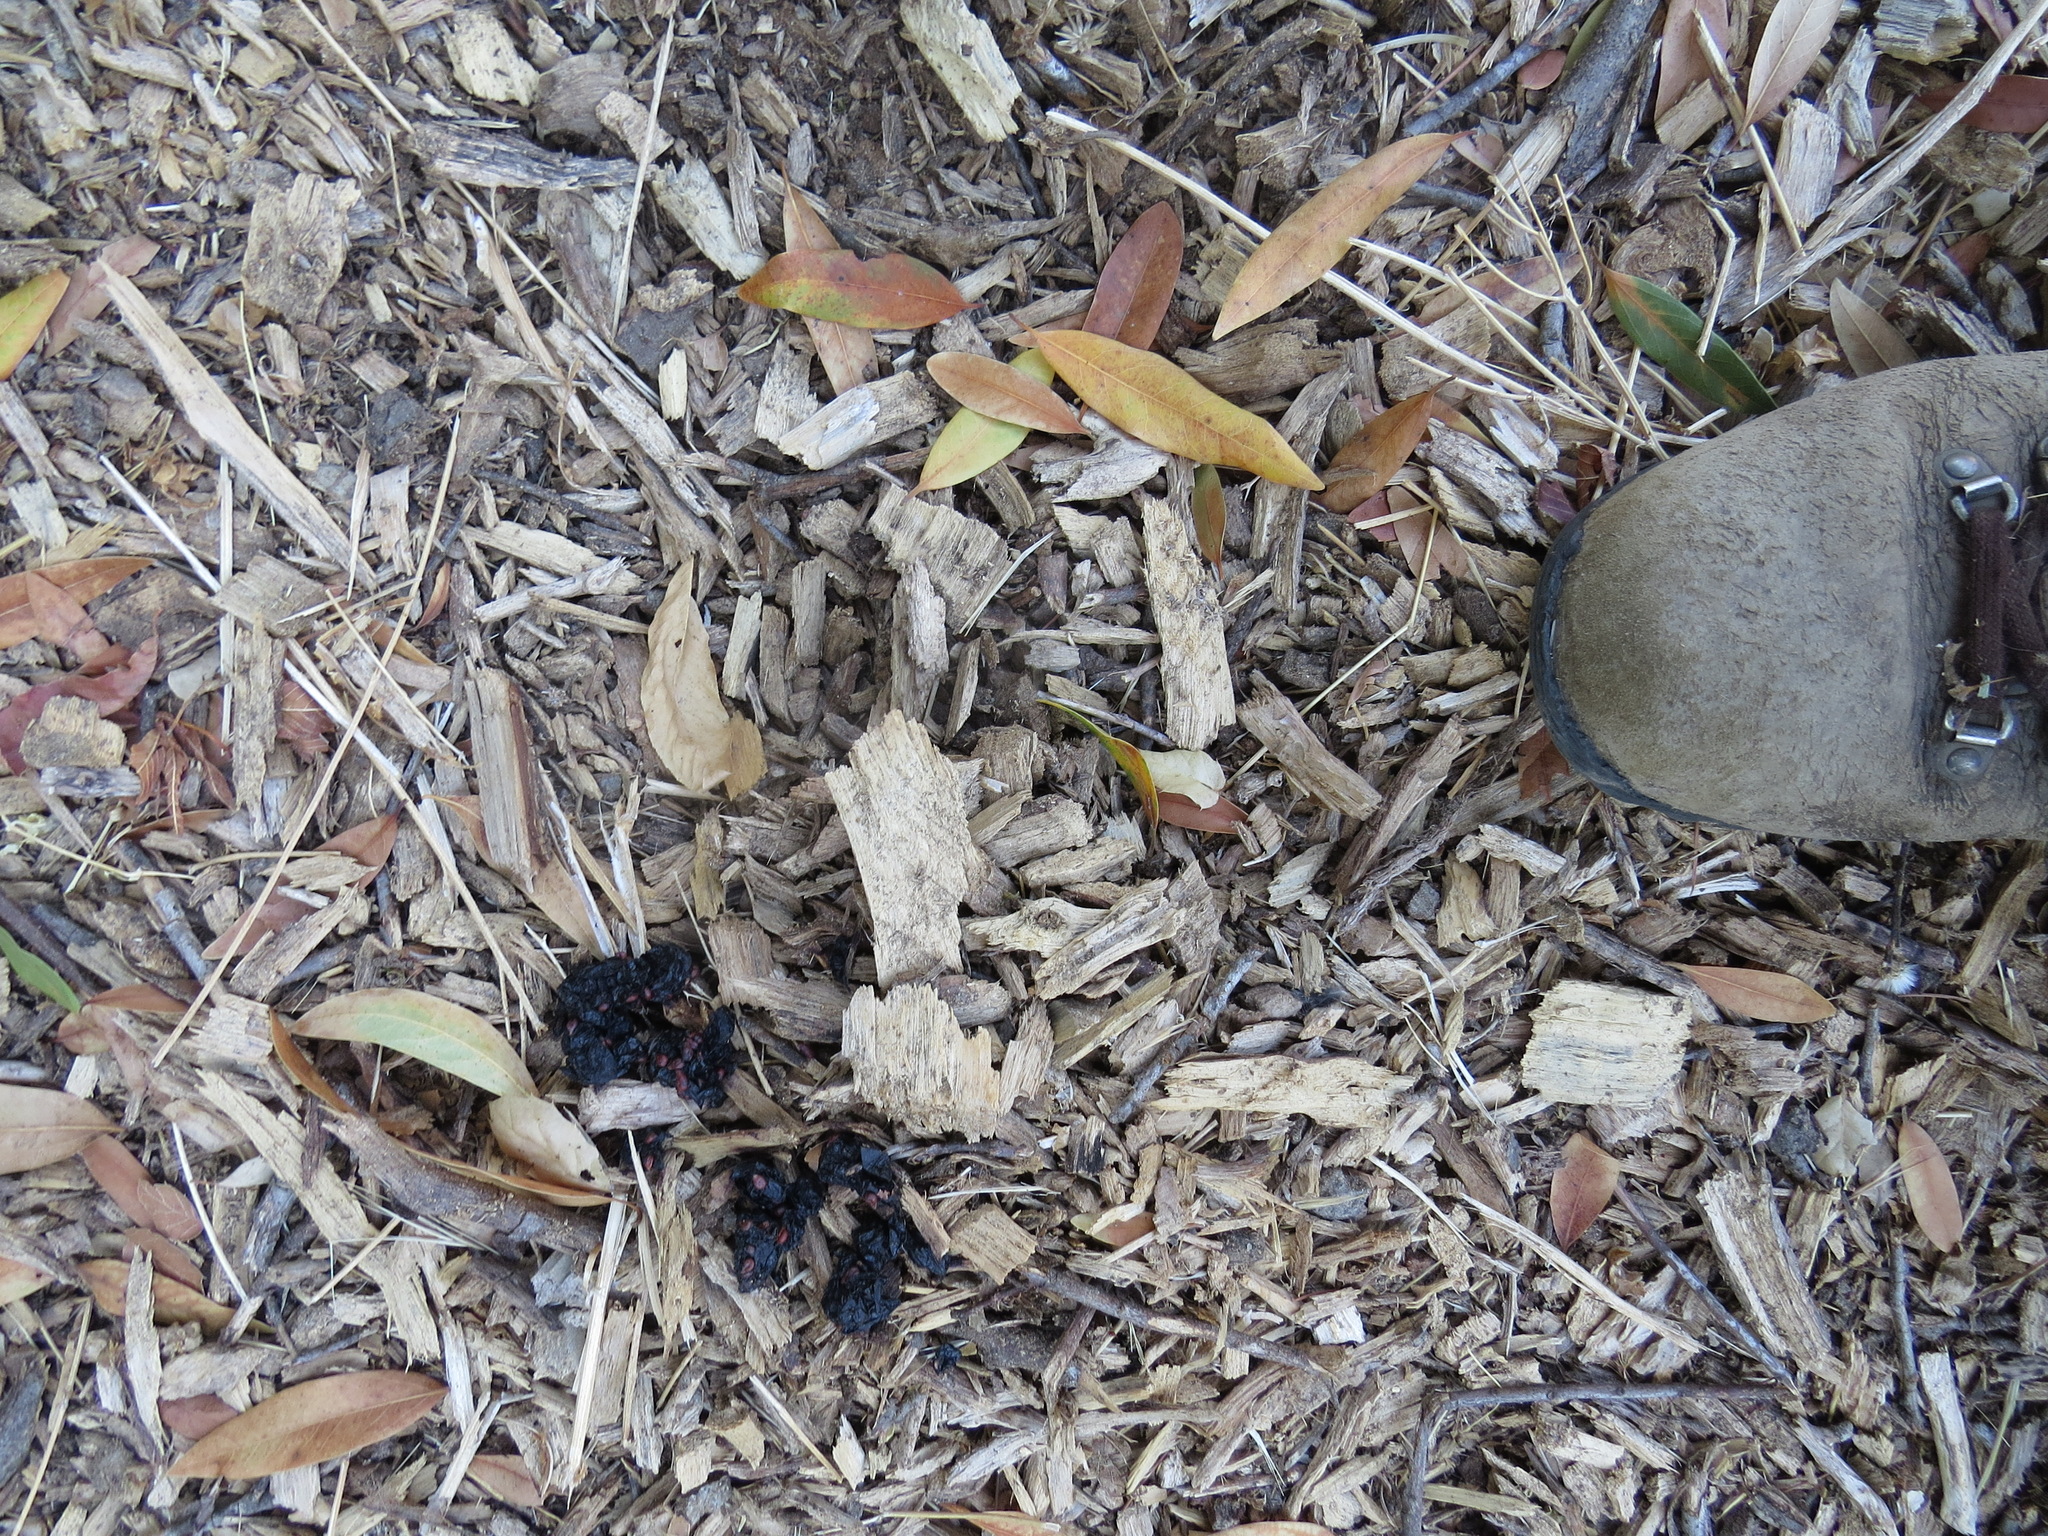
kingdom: Animalia
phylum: Chordata
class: Mammalia
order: Carnivora
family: Felidae
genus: Puma
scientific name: Puma concolor
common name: Puma
